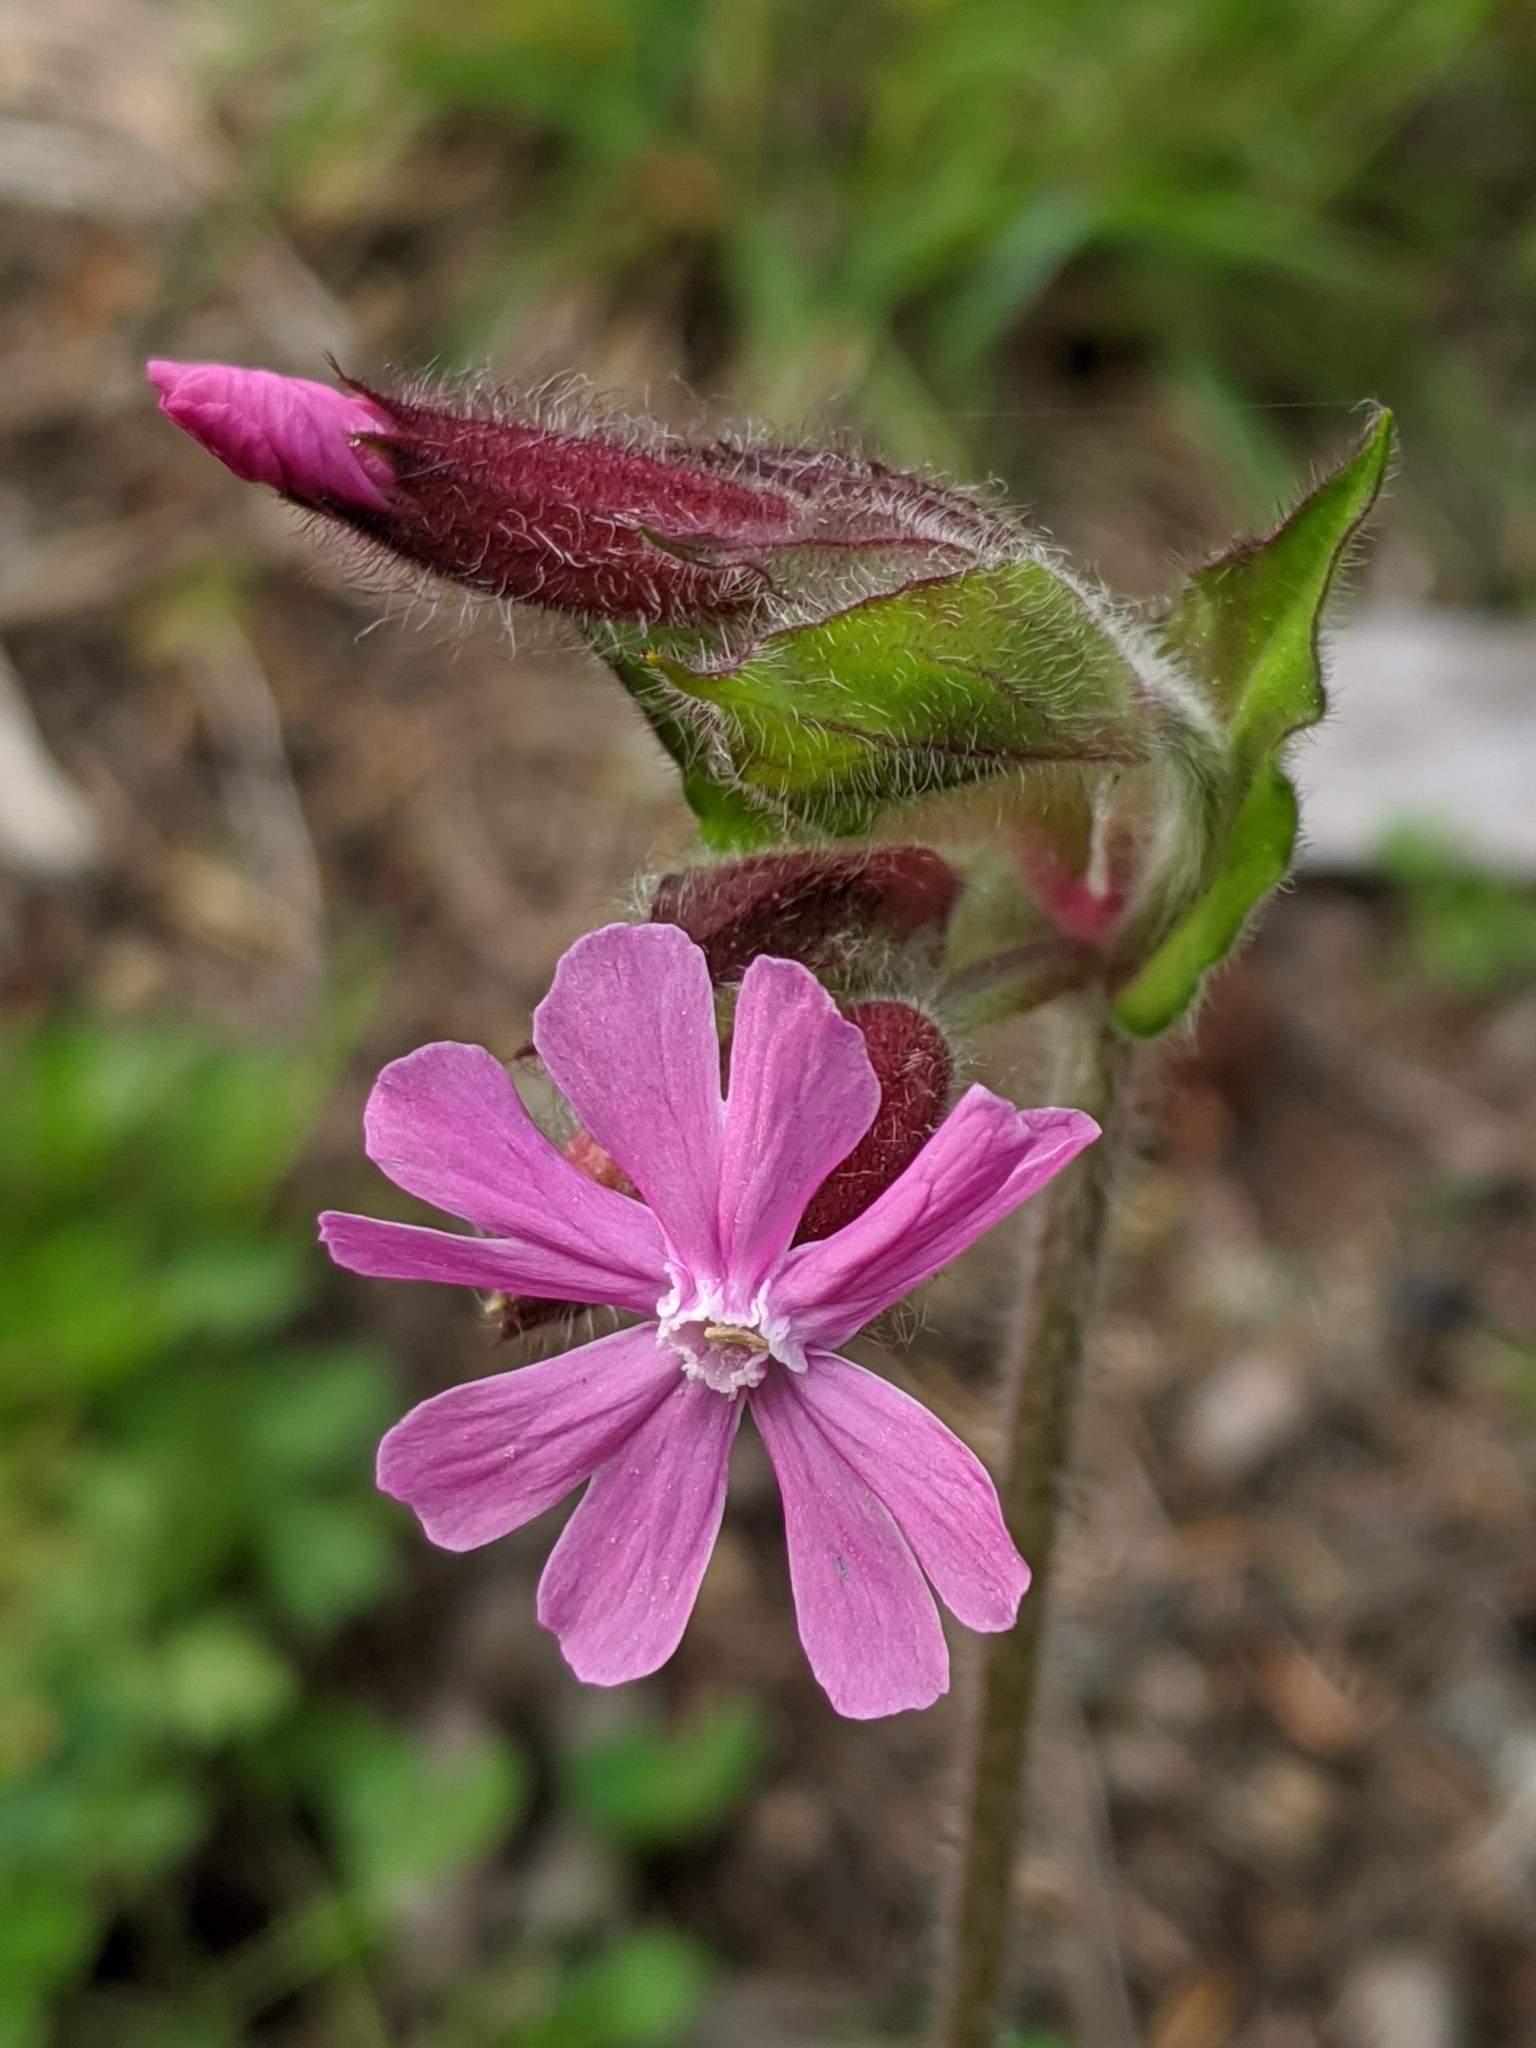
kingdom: Plantae
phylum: Tracheophyta
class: Magnoliopsida
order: Caryophyllales
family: Caryophyllaceae
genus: Silene
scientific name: Silene dioica
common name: Red campion
